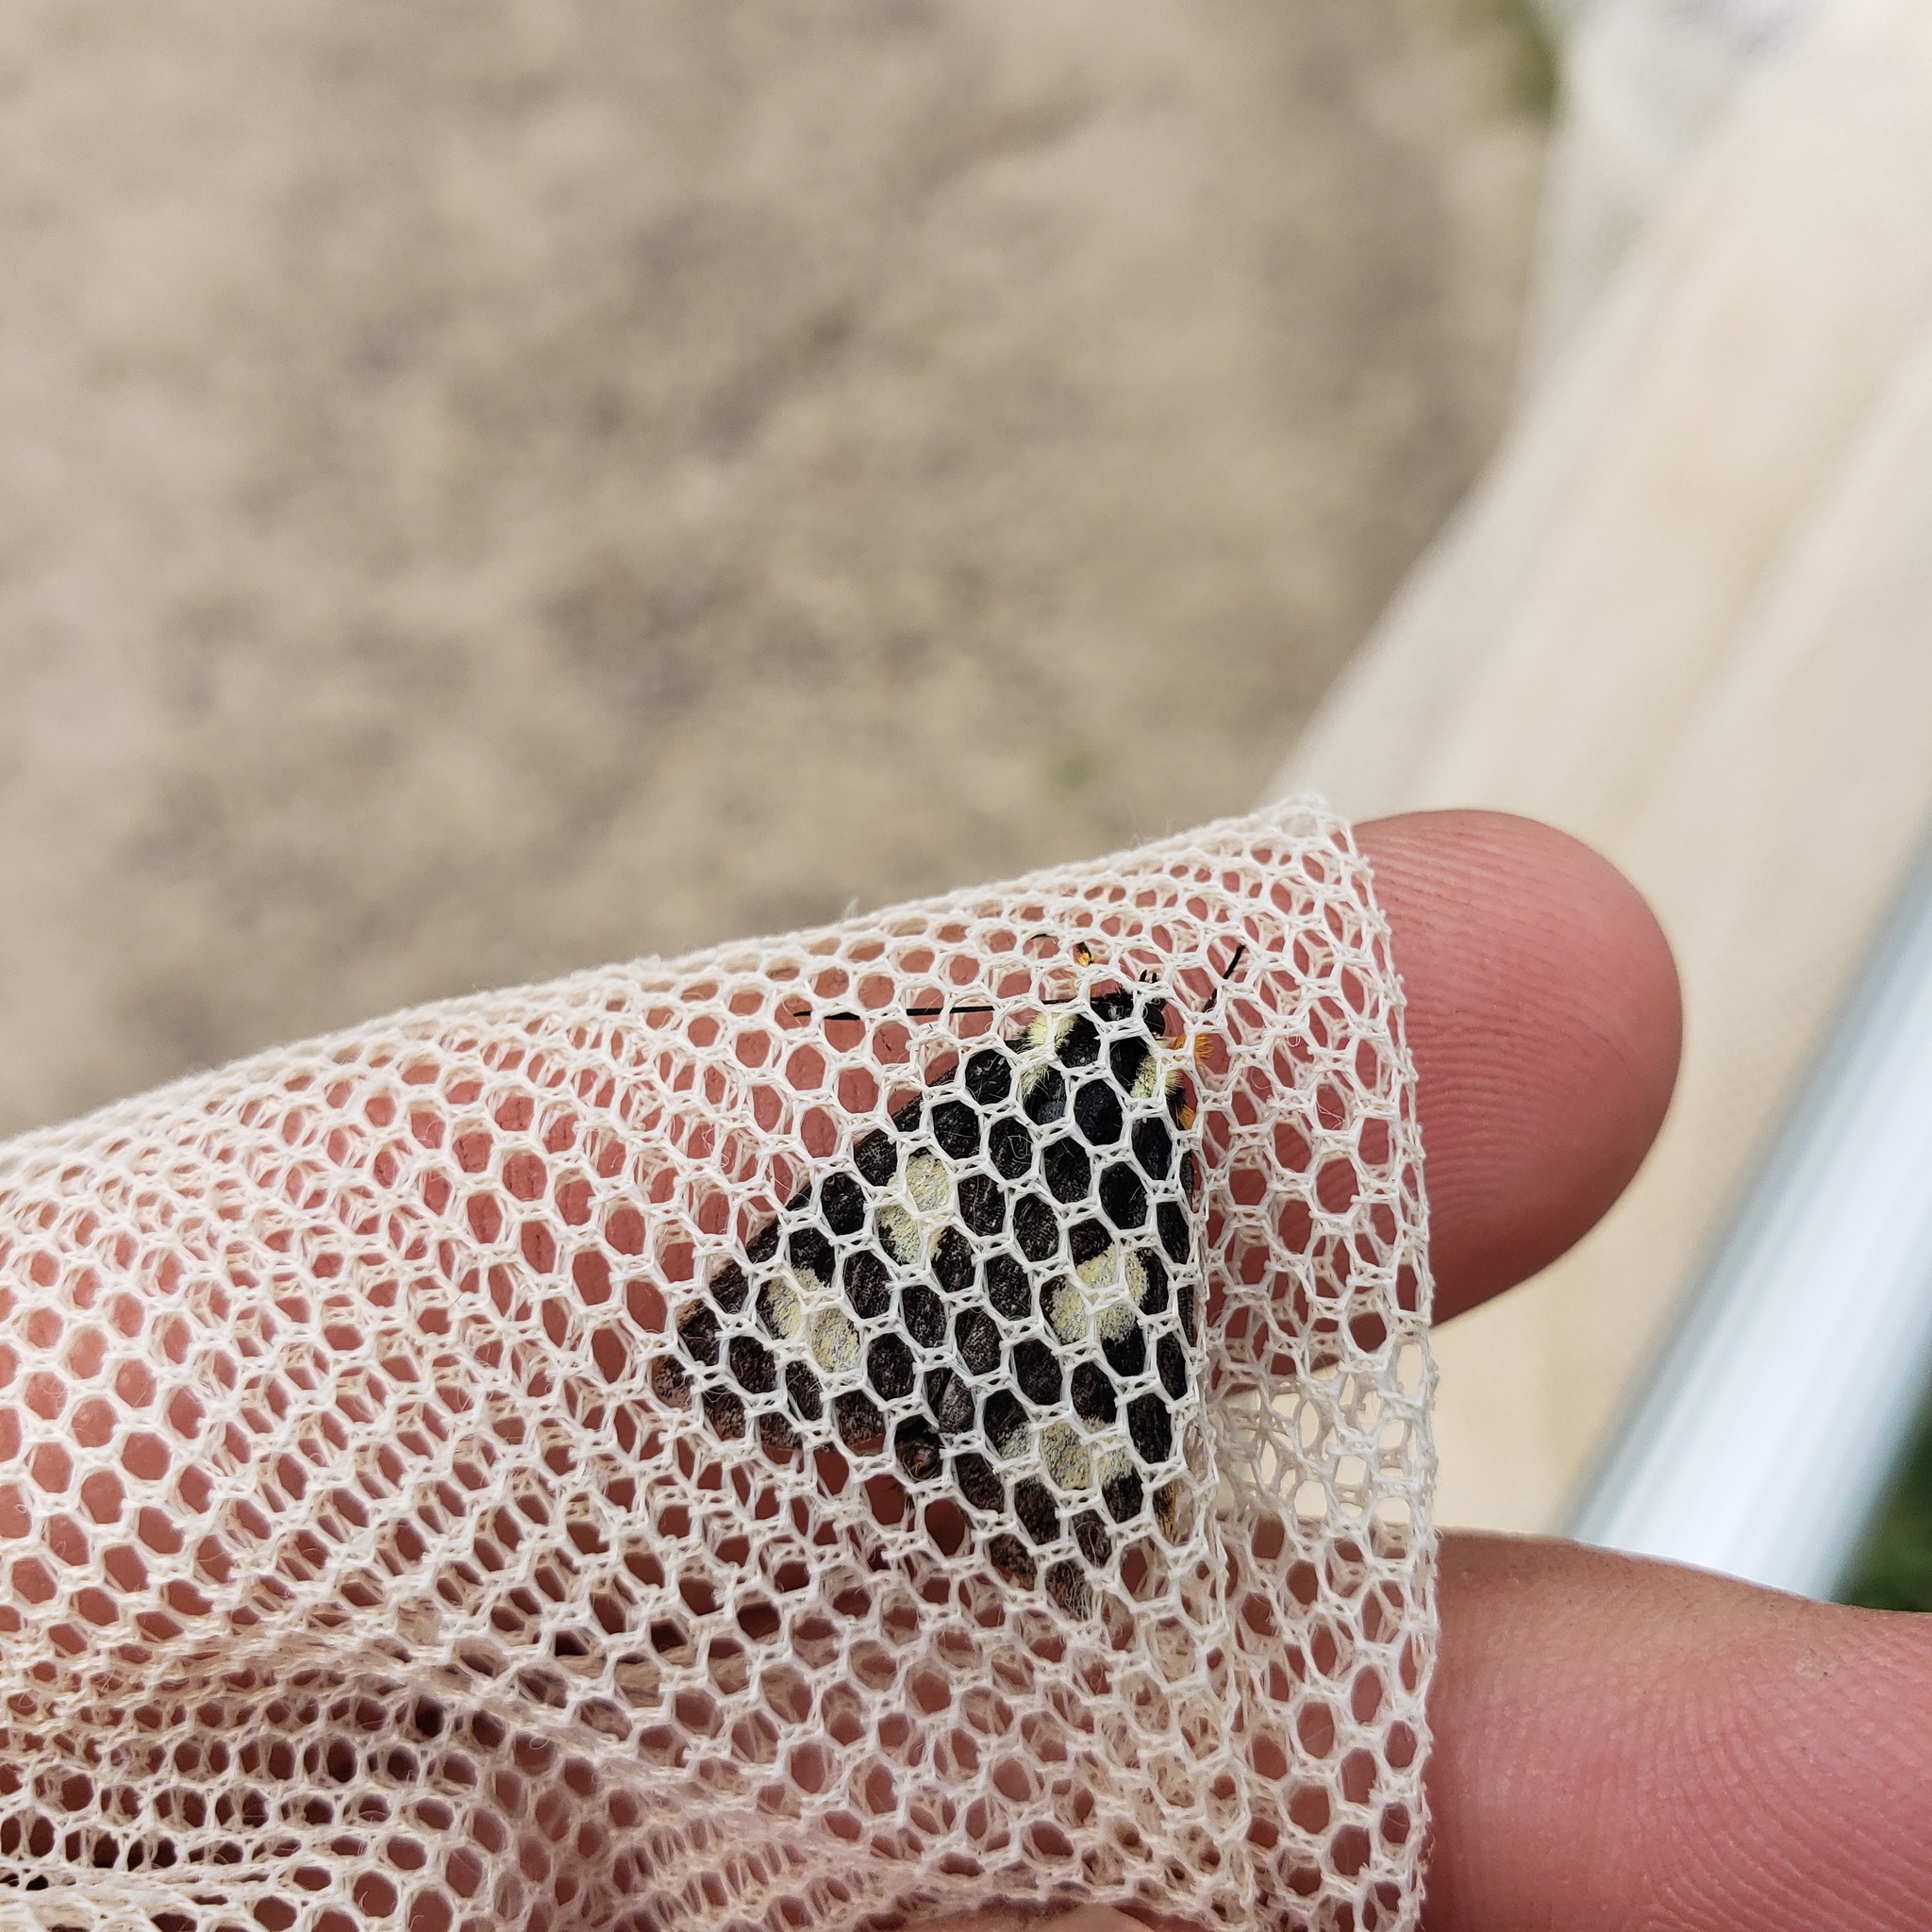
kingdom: Animalia
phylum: Arthropoda
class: Insecta
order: Lepidoptera
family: Noctuidae
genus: Alypia
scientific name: Alypia octomaculata
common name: Eight-spotted forester
